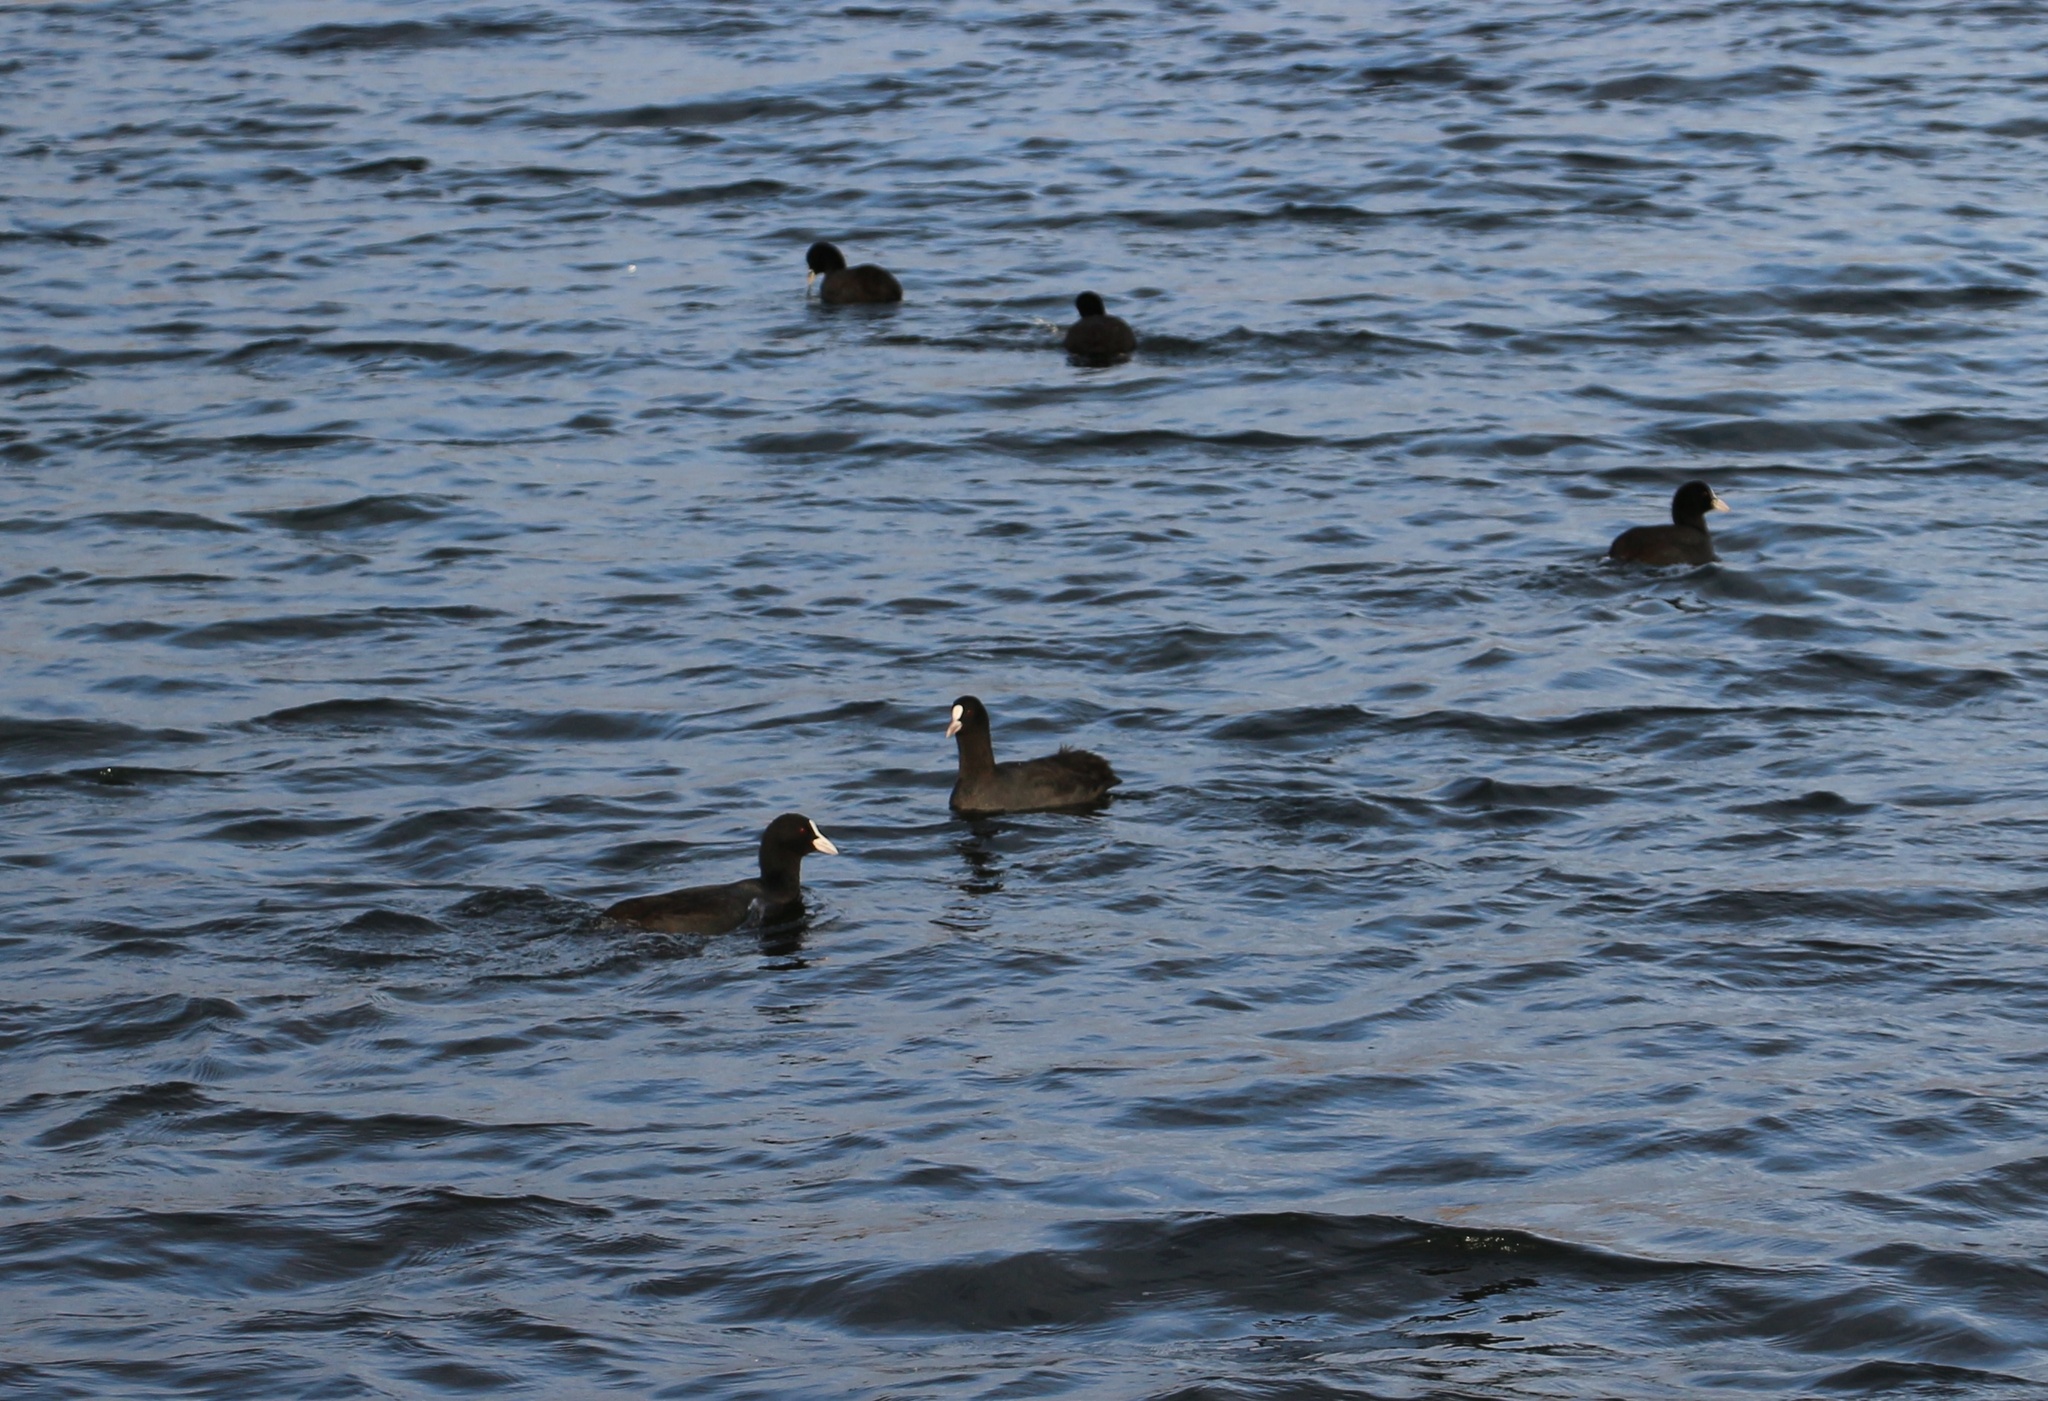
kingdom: Animalia
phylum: Chordata
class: Aves
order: Gruiformes
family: Rallidae
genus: Fulica
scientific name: Fulica atra
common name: Eurasian coot
